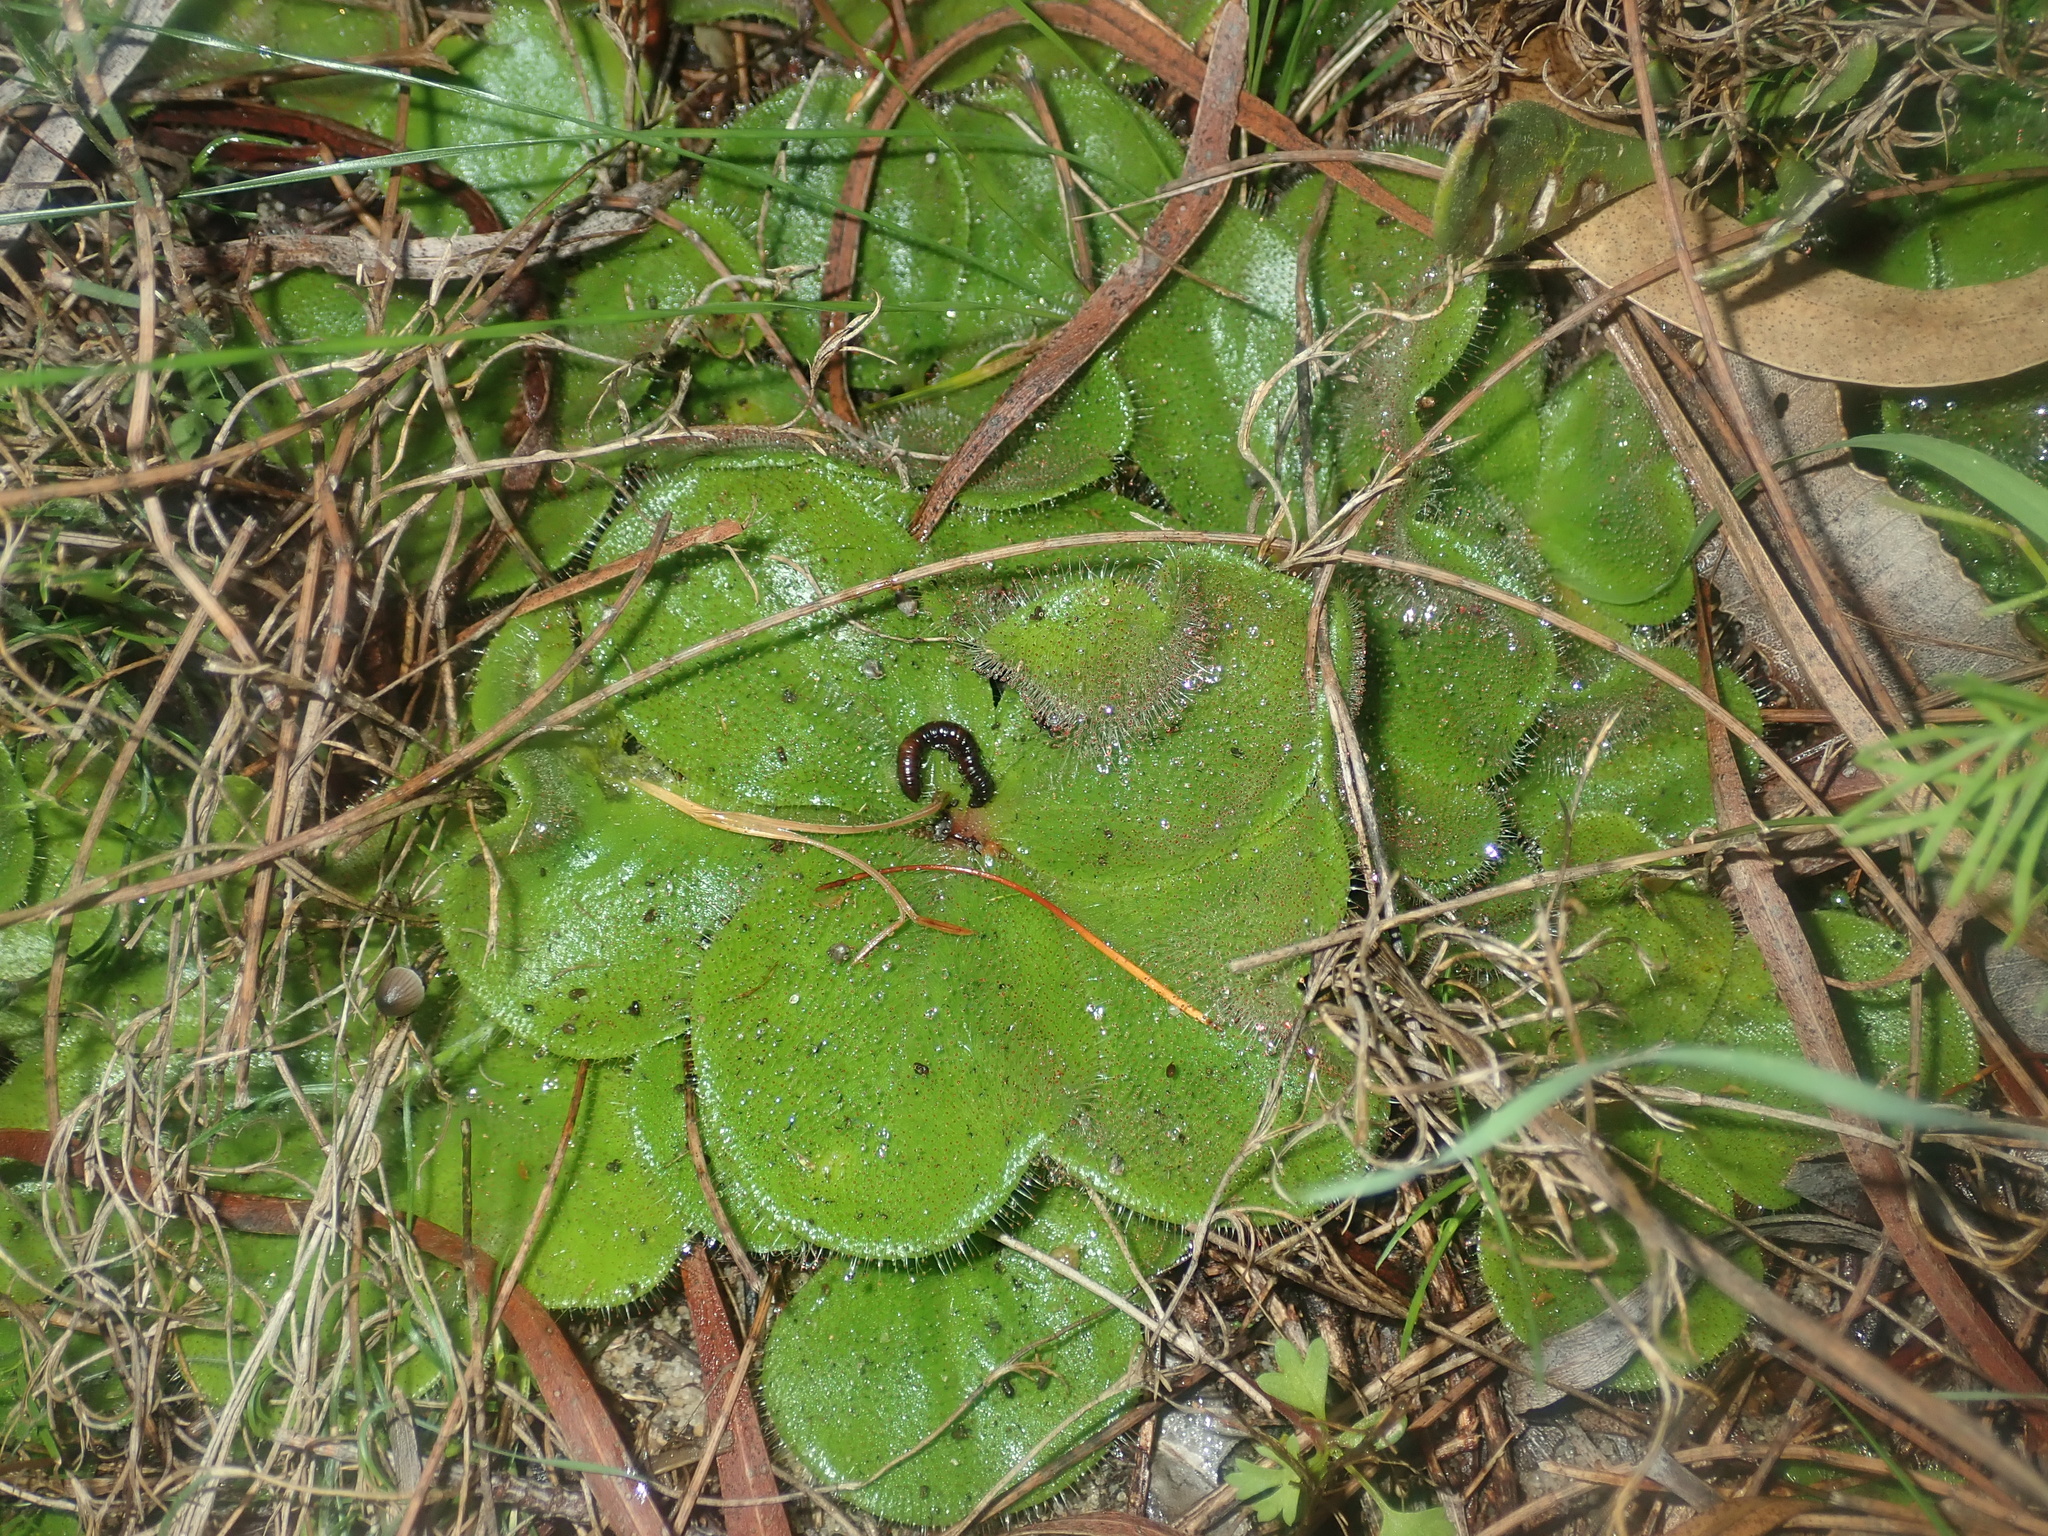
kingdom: Plantae
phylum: Tracheophyta
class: Magnoliopsida
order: Caryophyllales
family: Droseraceae
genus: Drosera
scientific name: Drosera erythrorhiza
